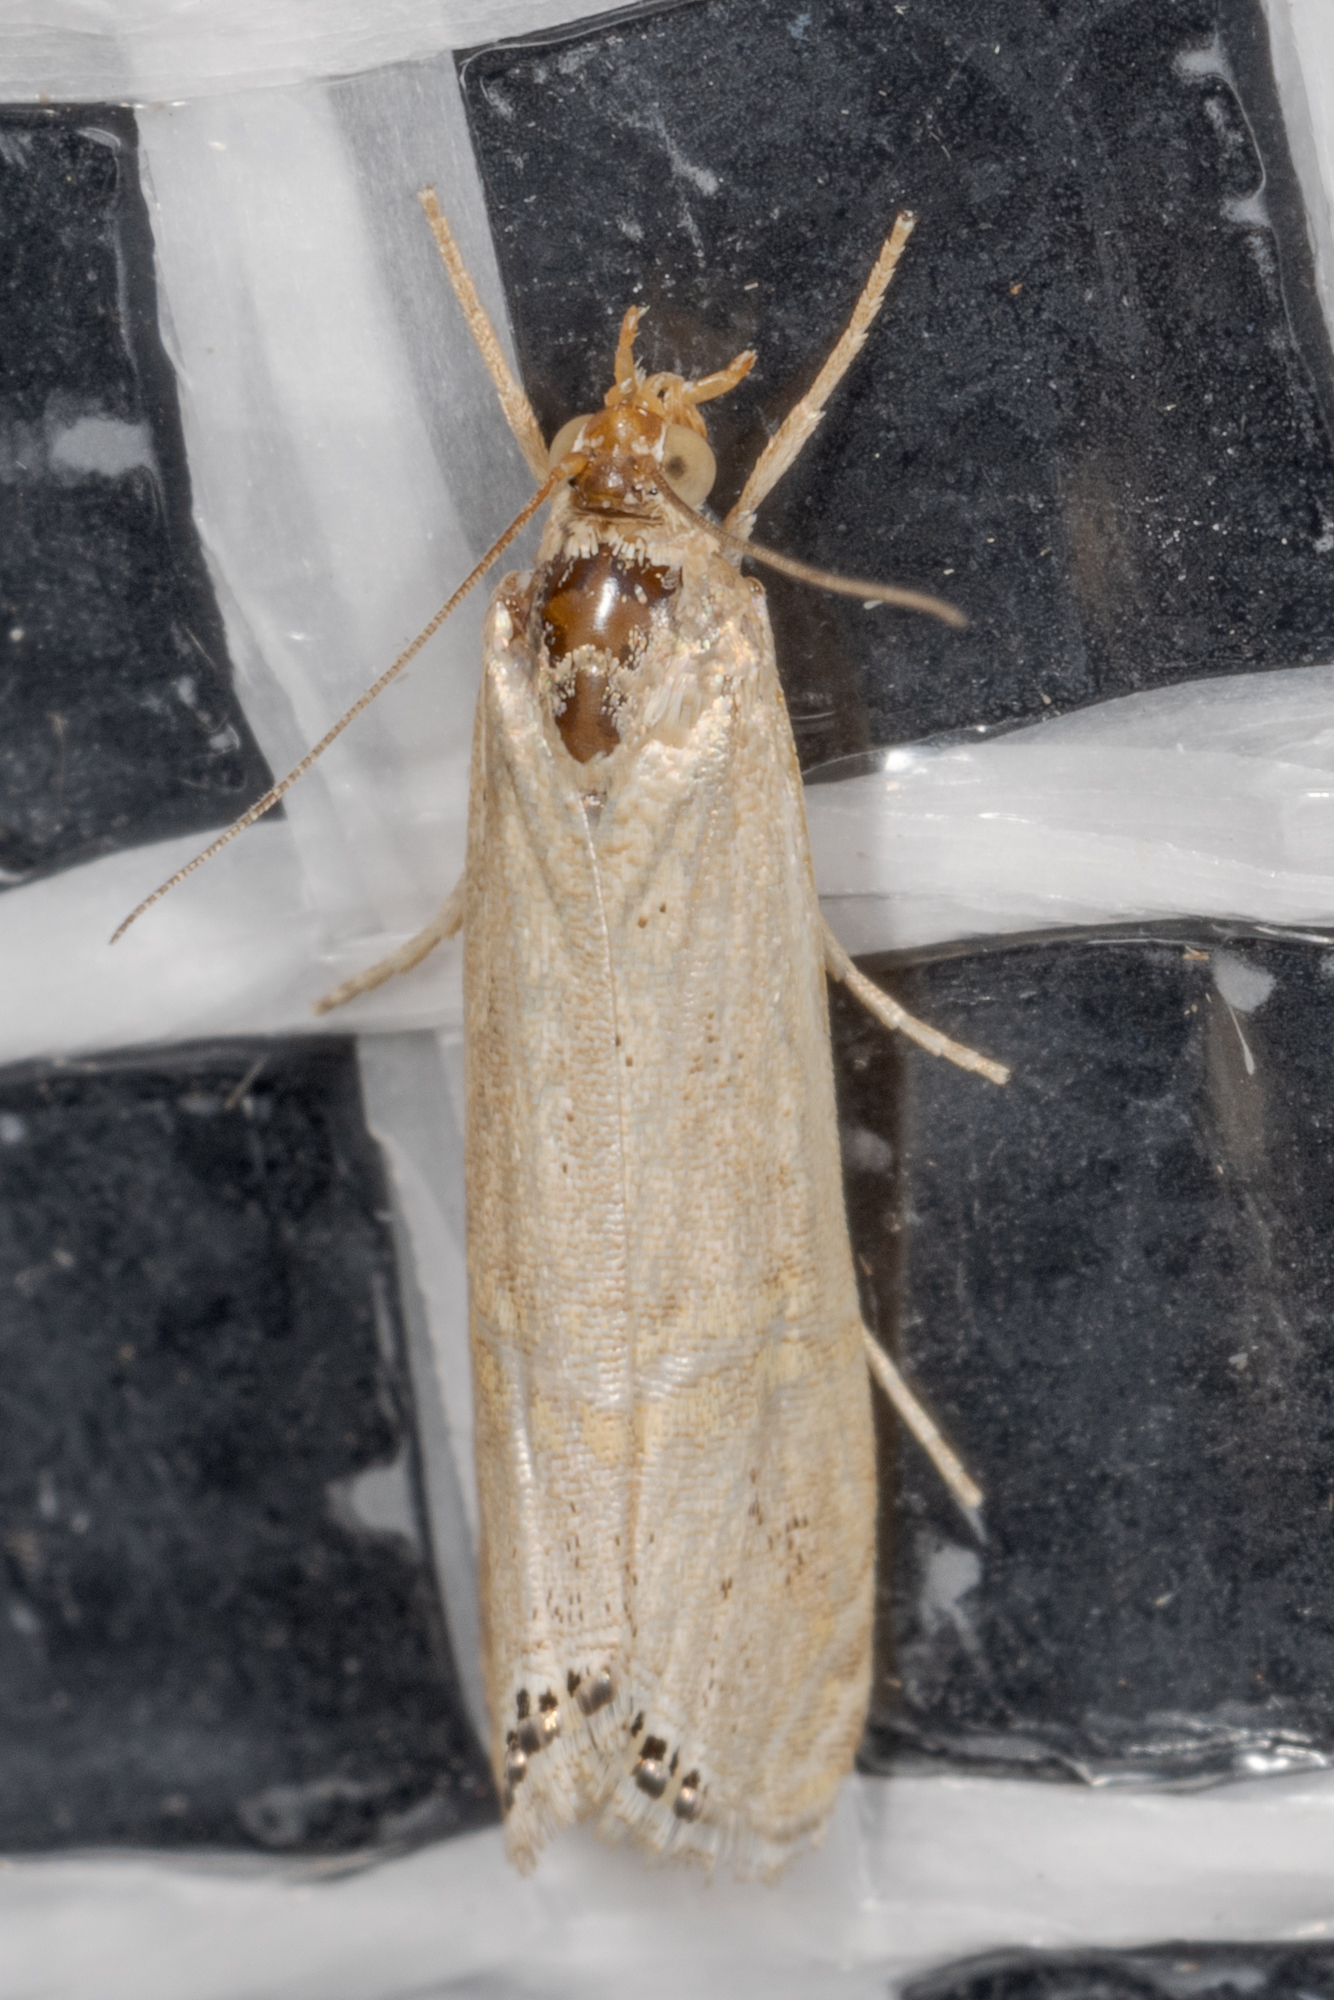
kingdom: Animalia
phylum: Arthropoda
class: Insecta
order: Lepidoptera
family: Crambidae
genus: Euchromius
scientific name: Euchromius ocellea
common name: Necklace veneer moth
